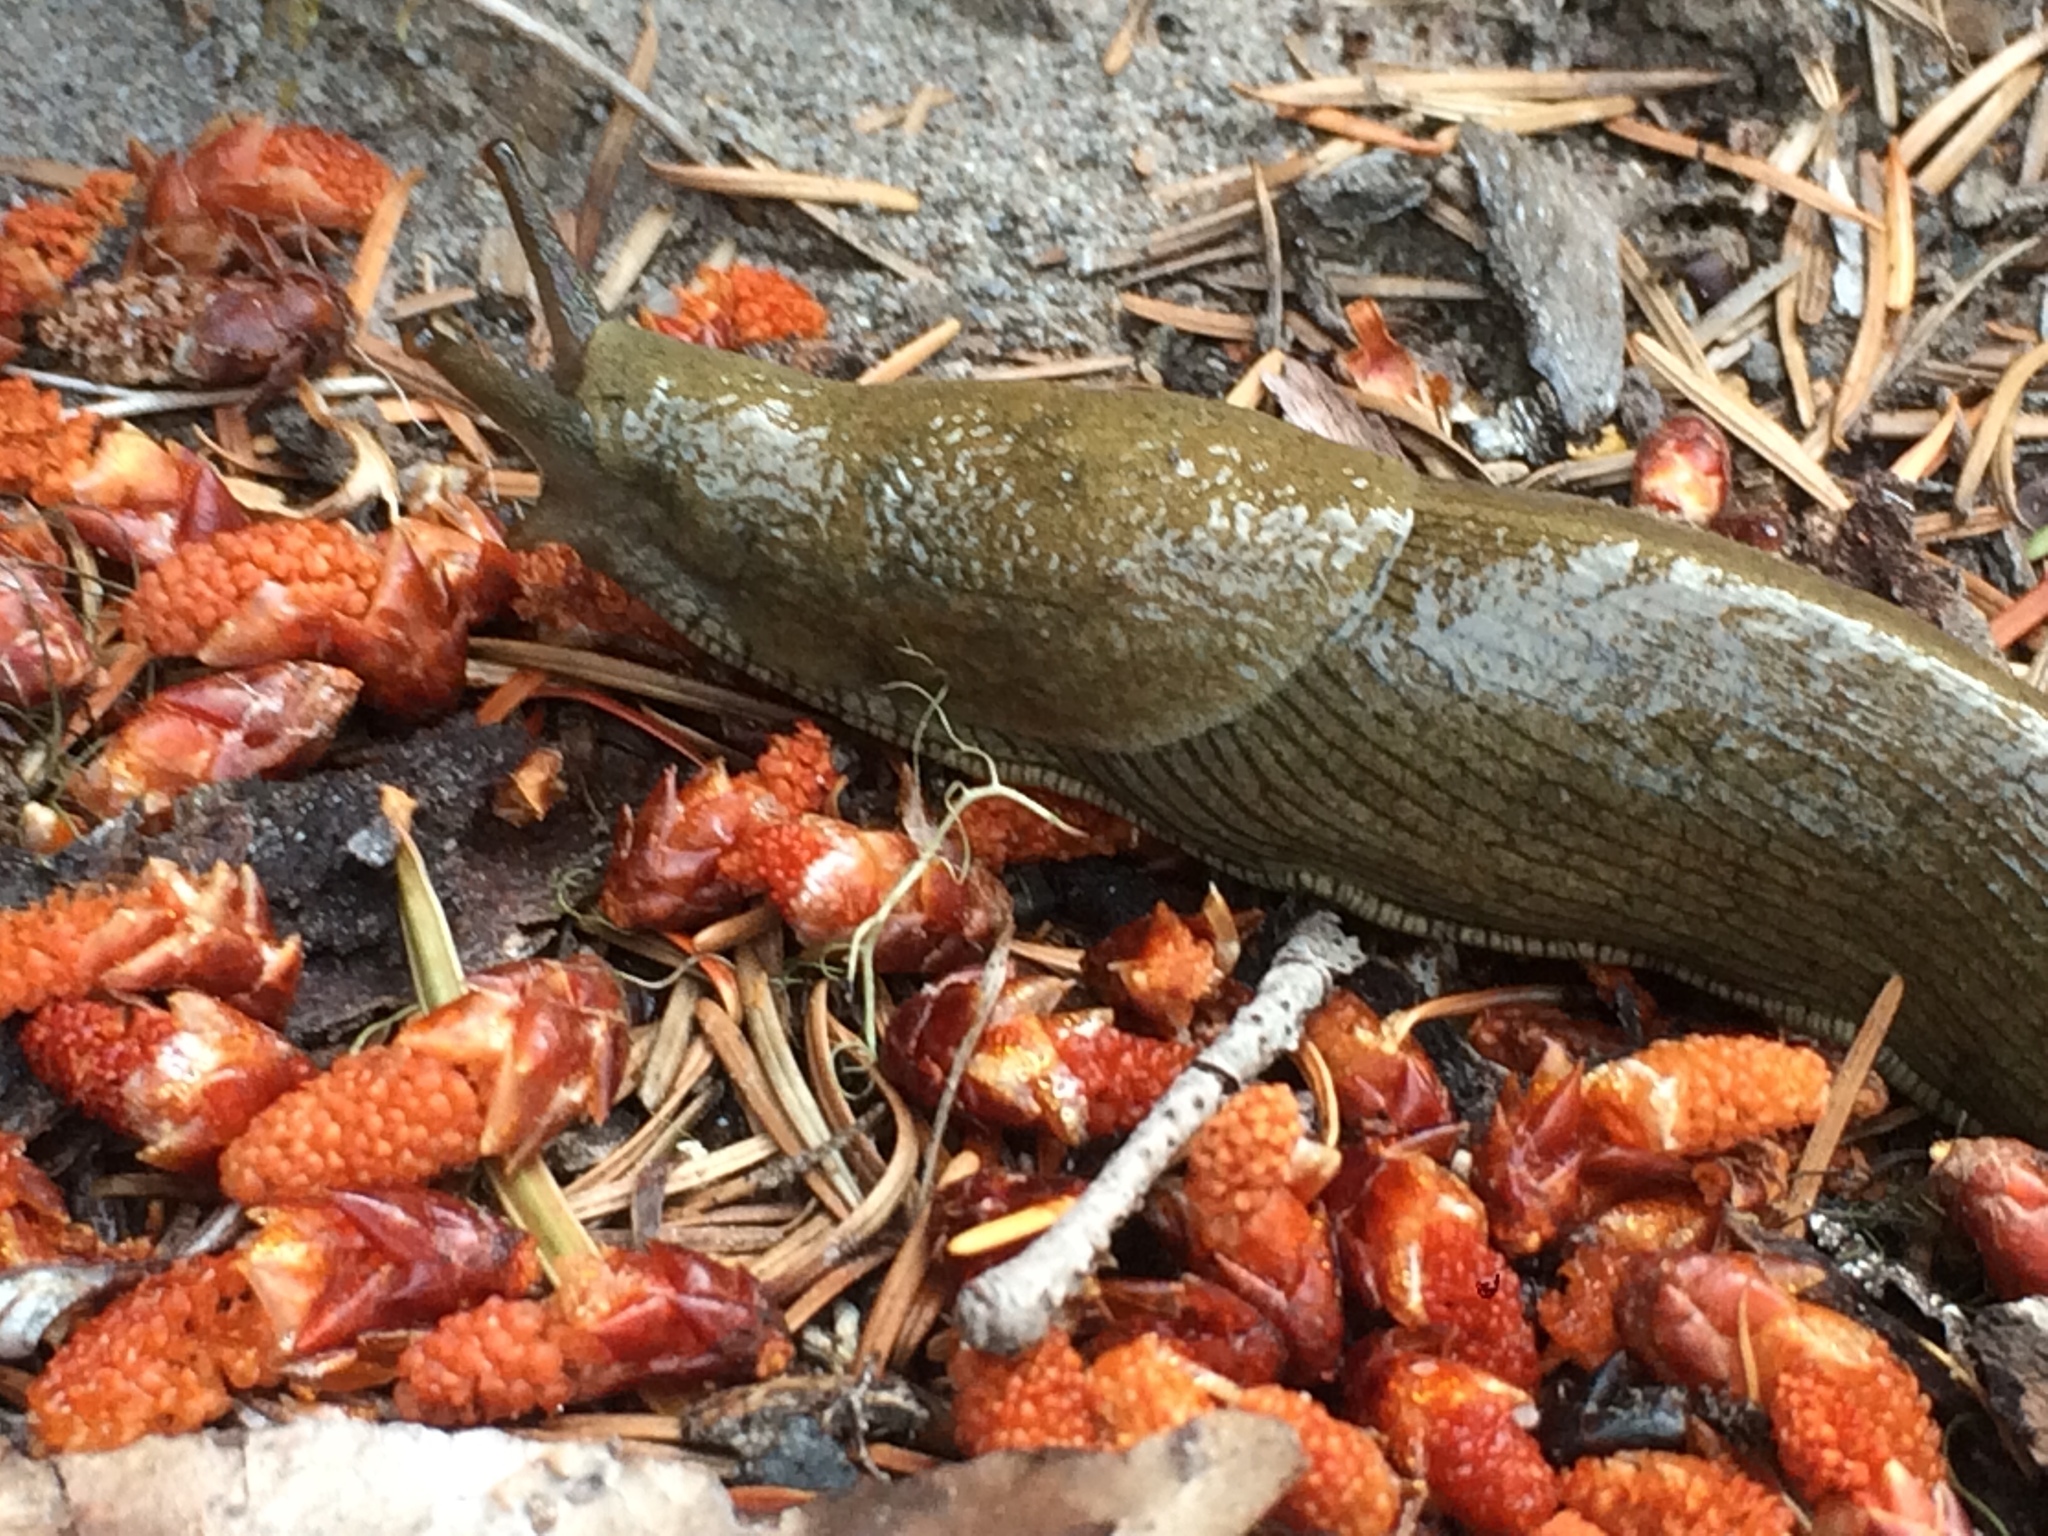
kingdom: Animalia
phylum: Mollusca
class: Gastropoda
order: Stylommatophora
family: Ariolimacidae
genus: Ariolimax
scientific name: Ariolimax columbianus
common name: Pacific banana slug
